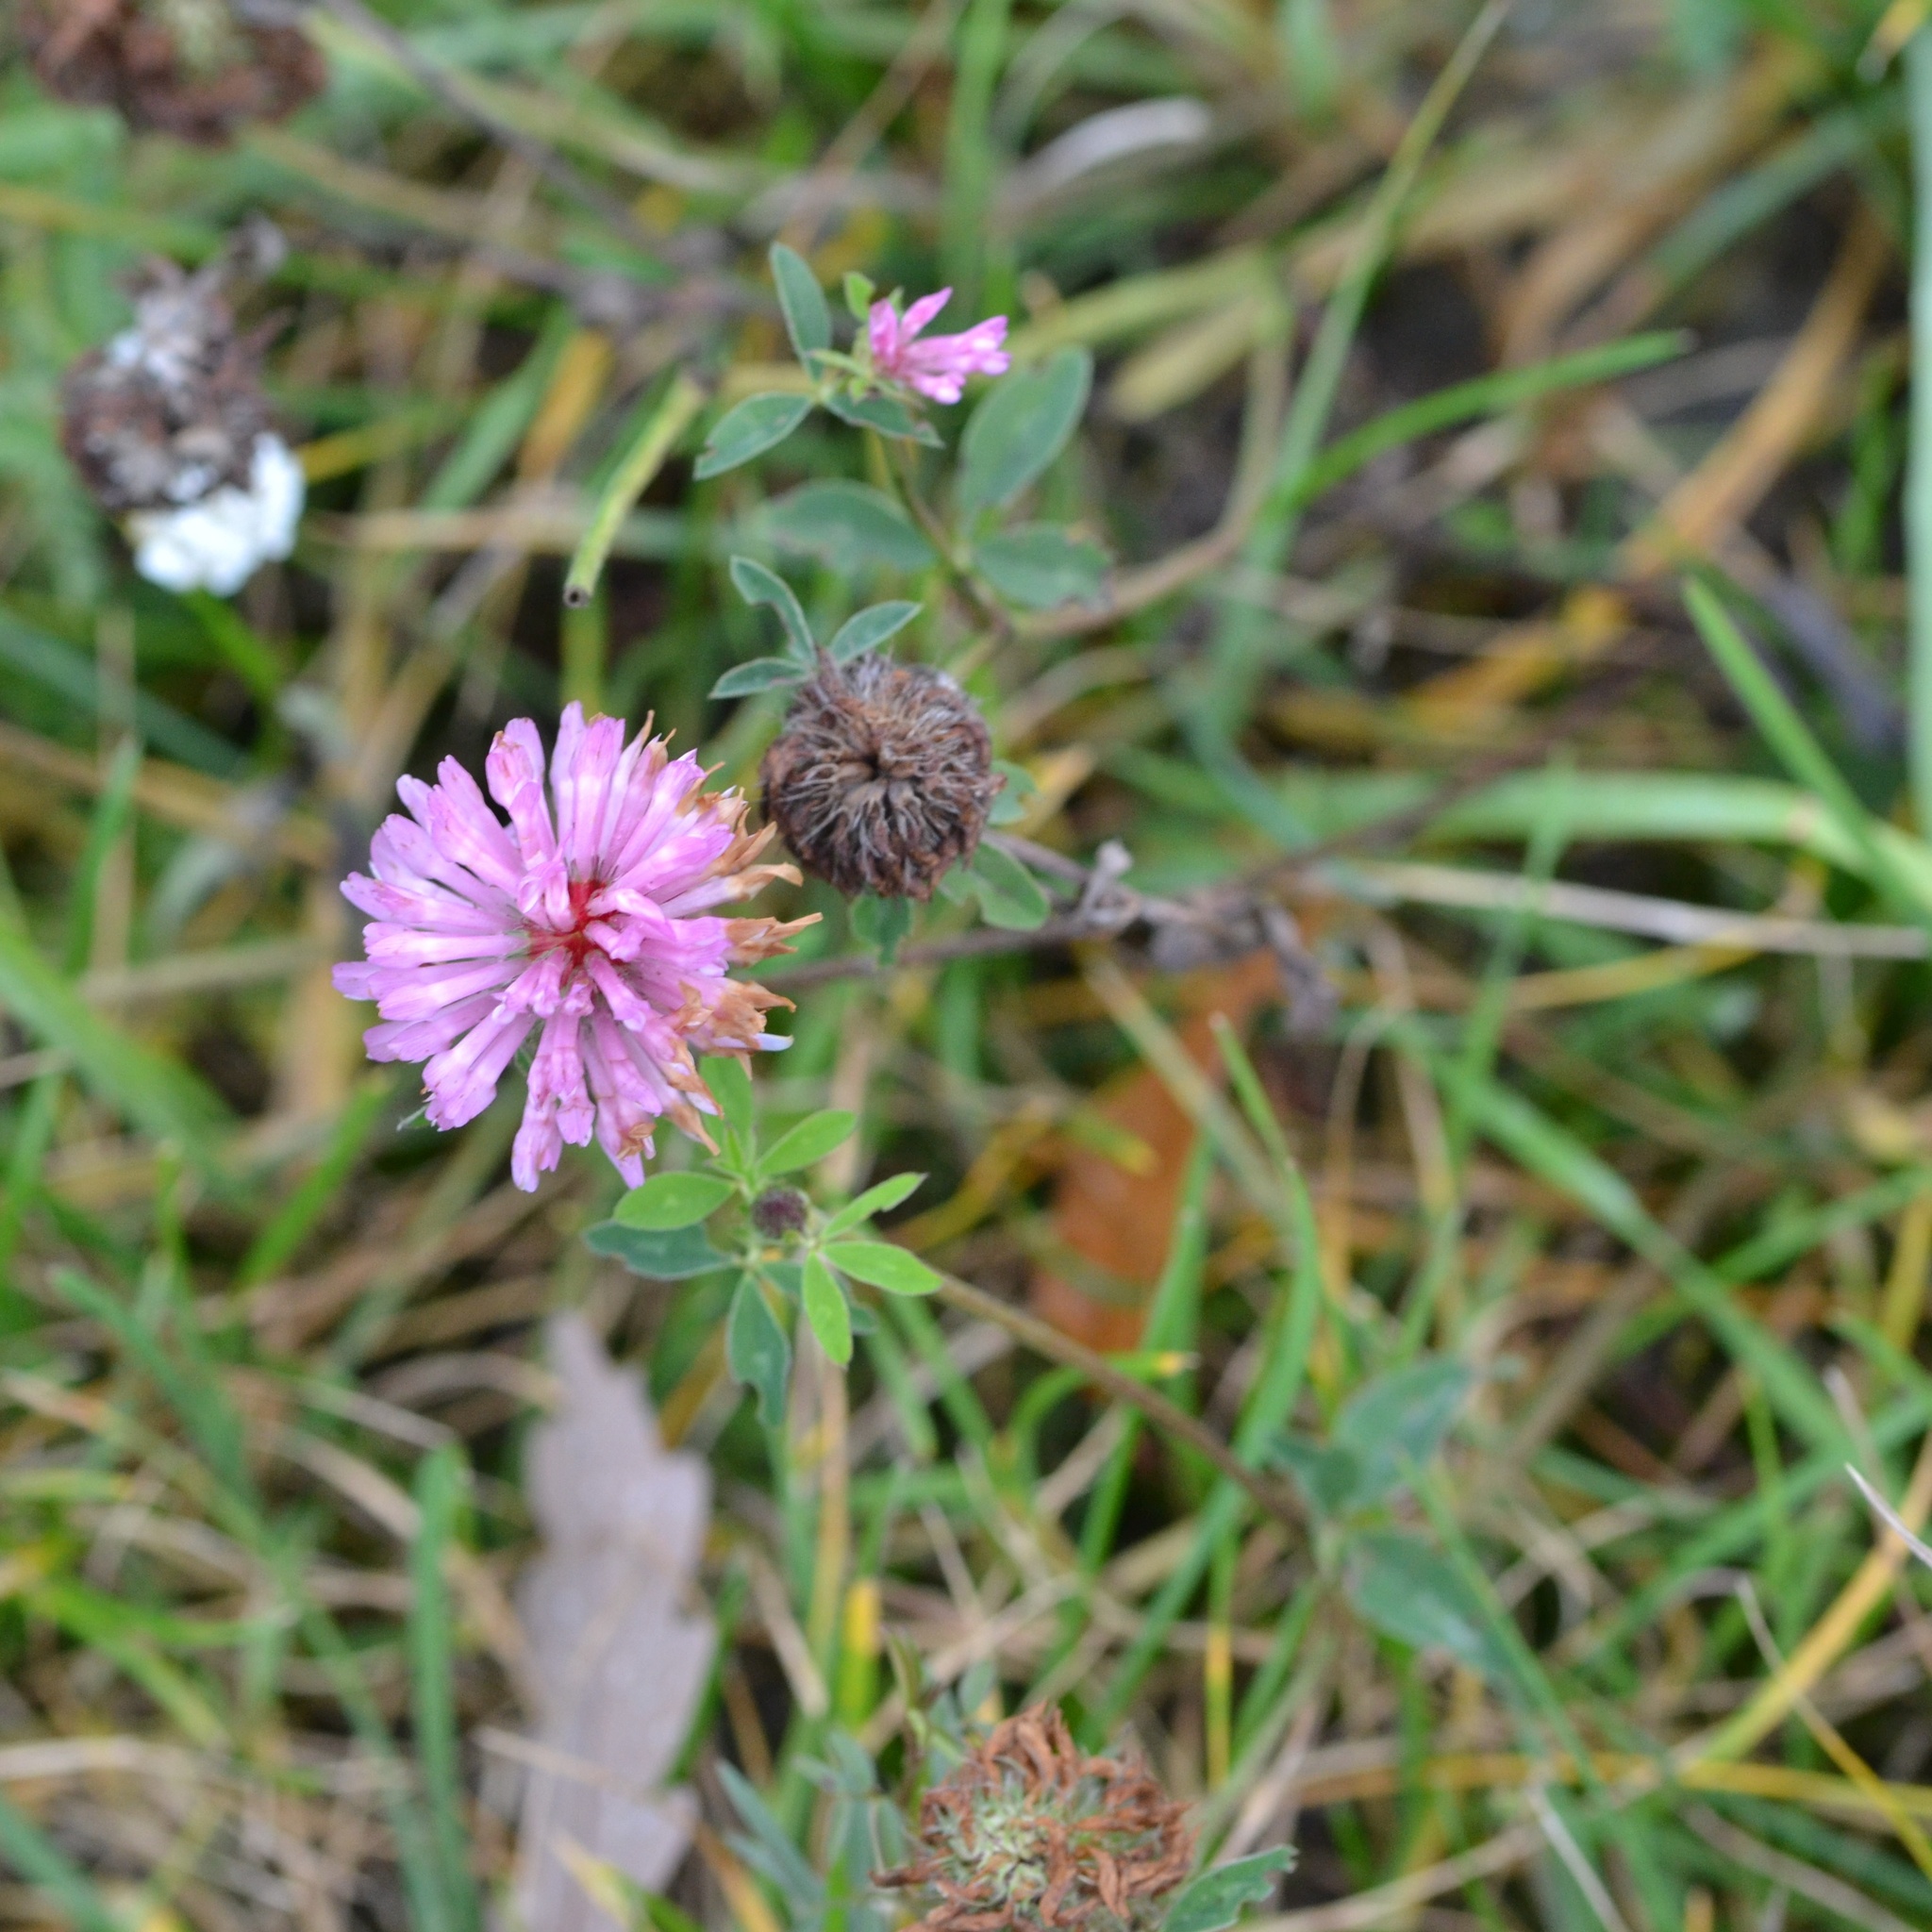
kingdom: Plantae
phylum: Tracheophyta
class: Magnoliopsida
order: Fabales
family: Fabaceae
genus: Trifolium
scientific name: Trifolium pratense
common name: Red clover
